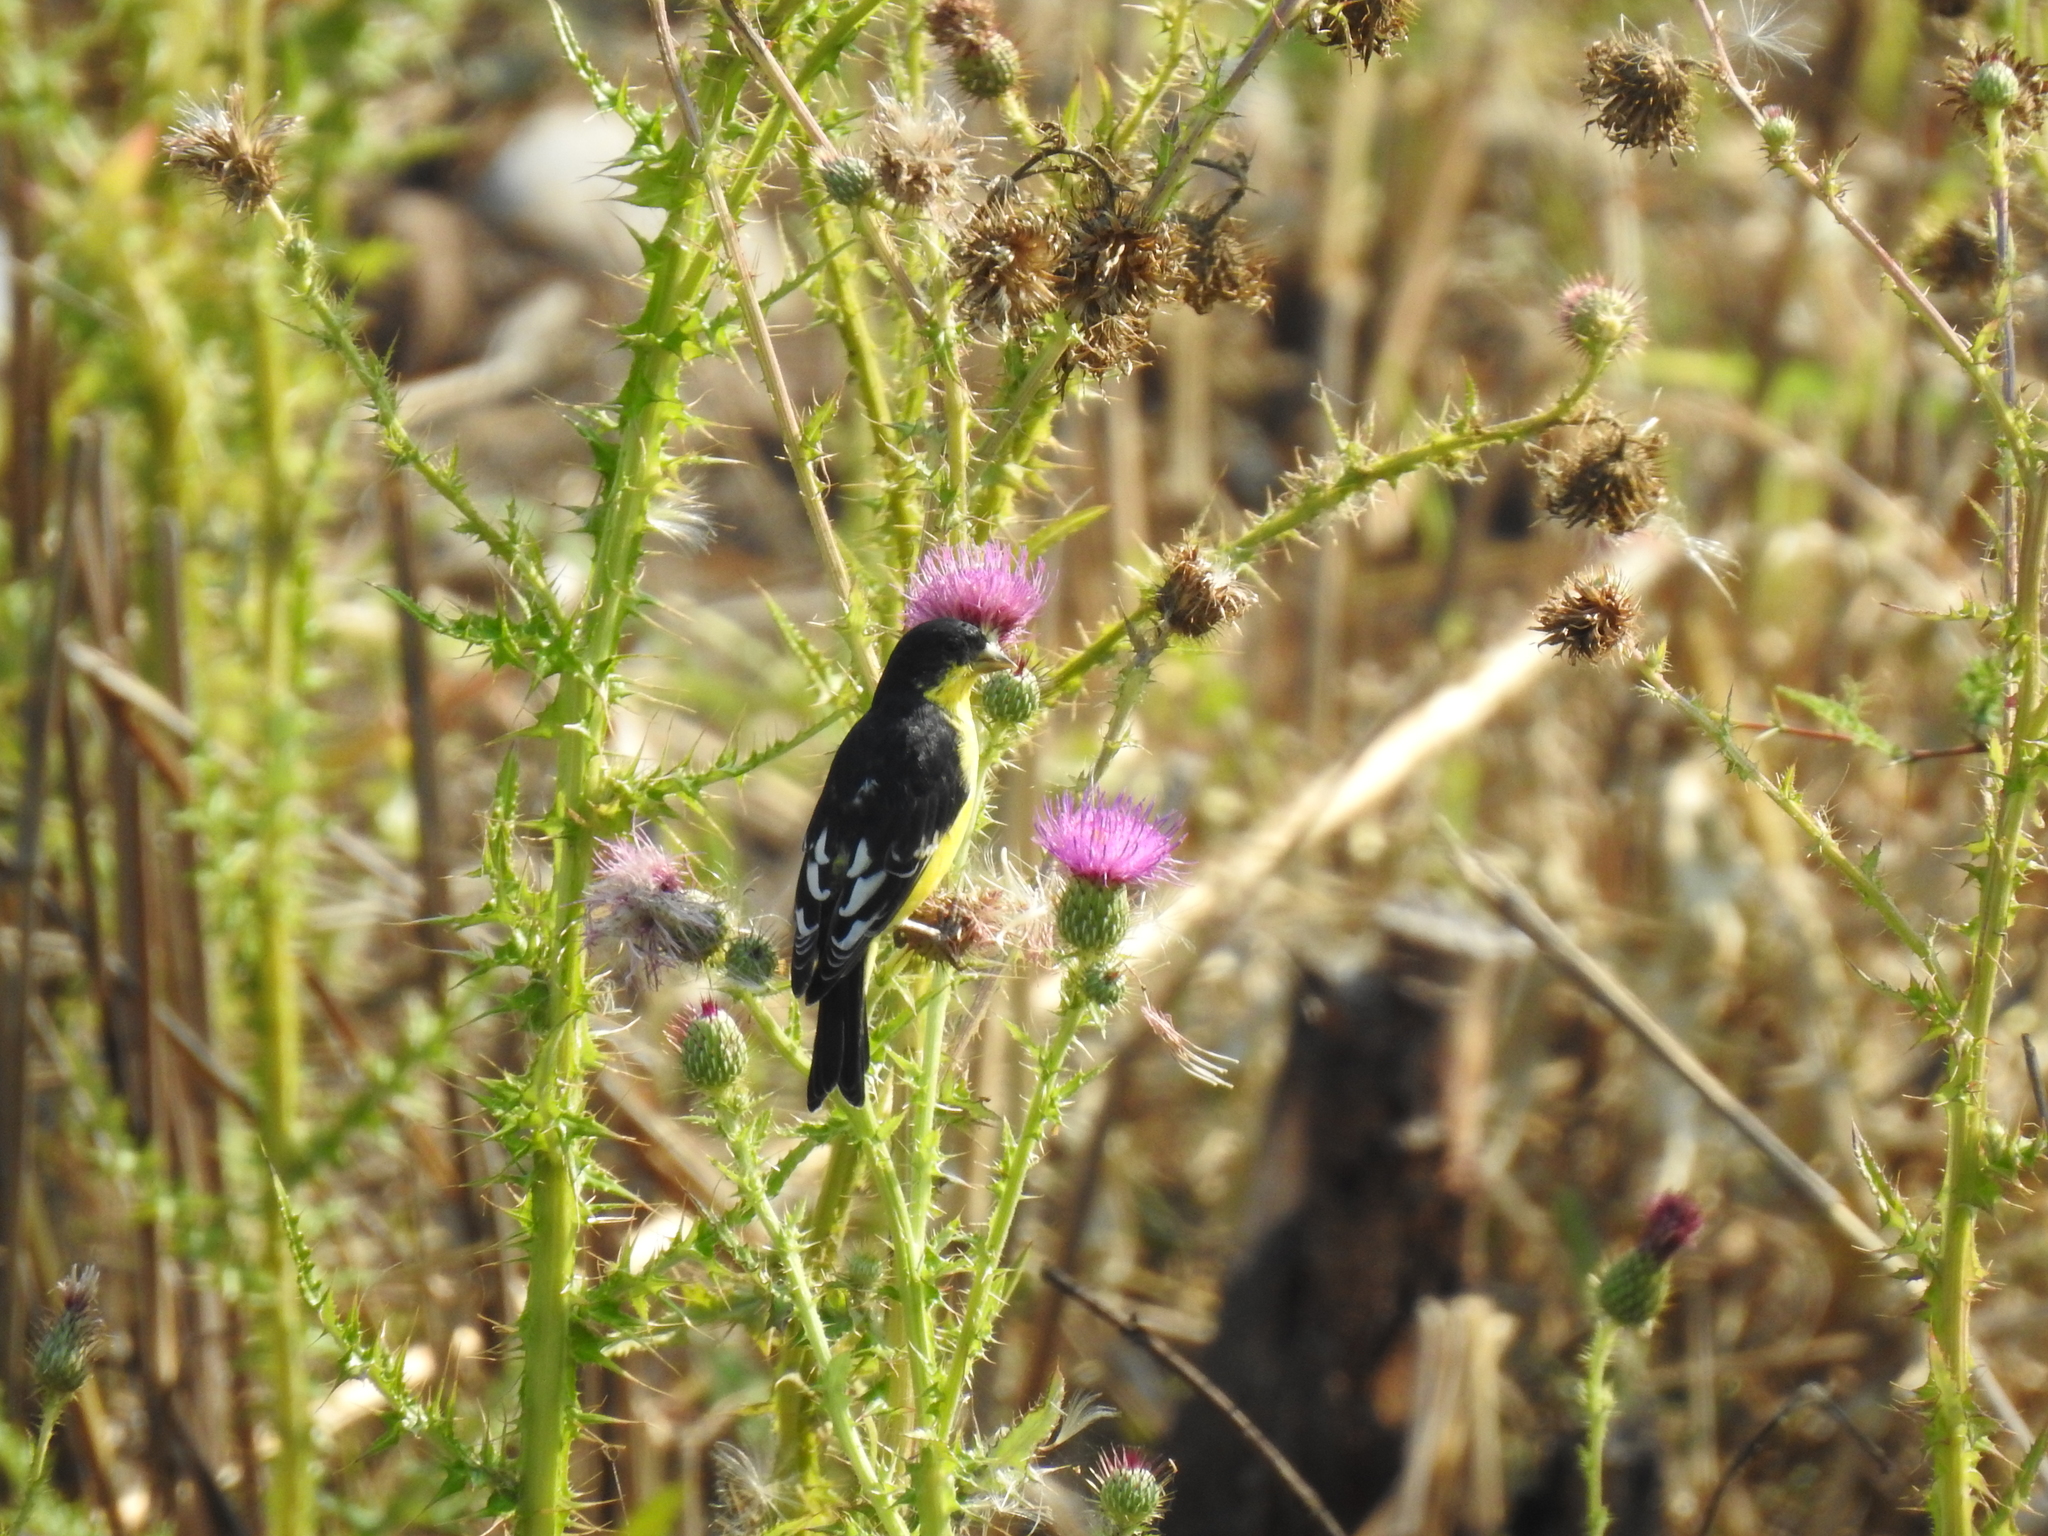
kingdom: Animalia
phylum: Chordata
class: Aves
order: Passeriformes
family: Fringillidae
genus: Spinus
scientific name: Spinus psaltria
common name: Lesser goldfinch
